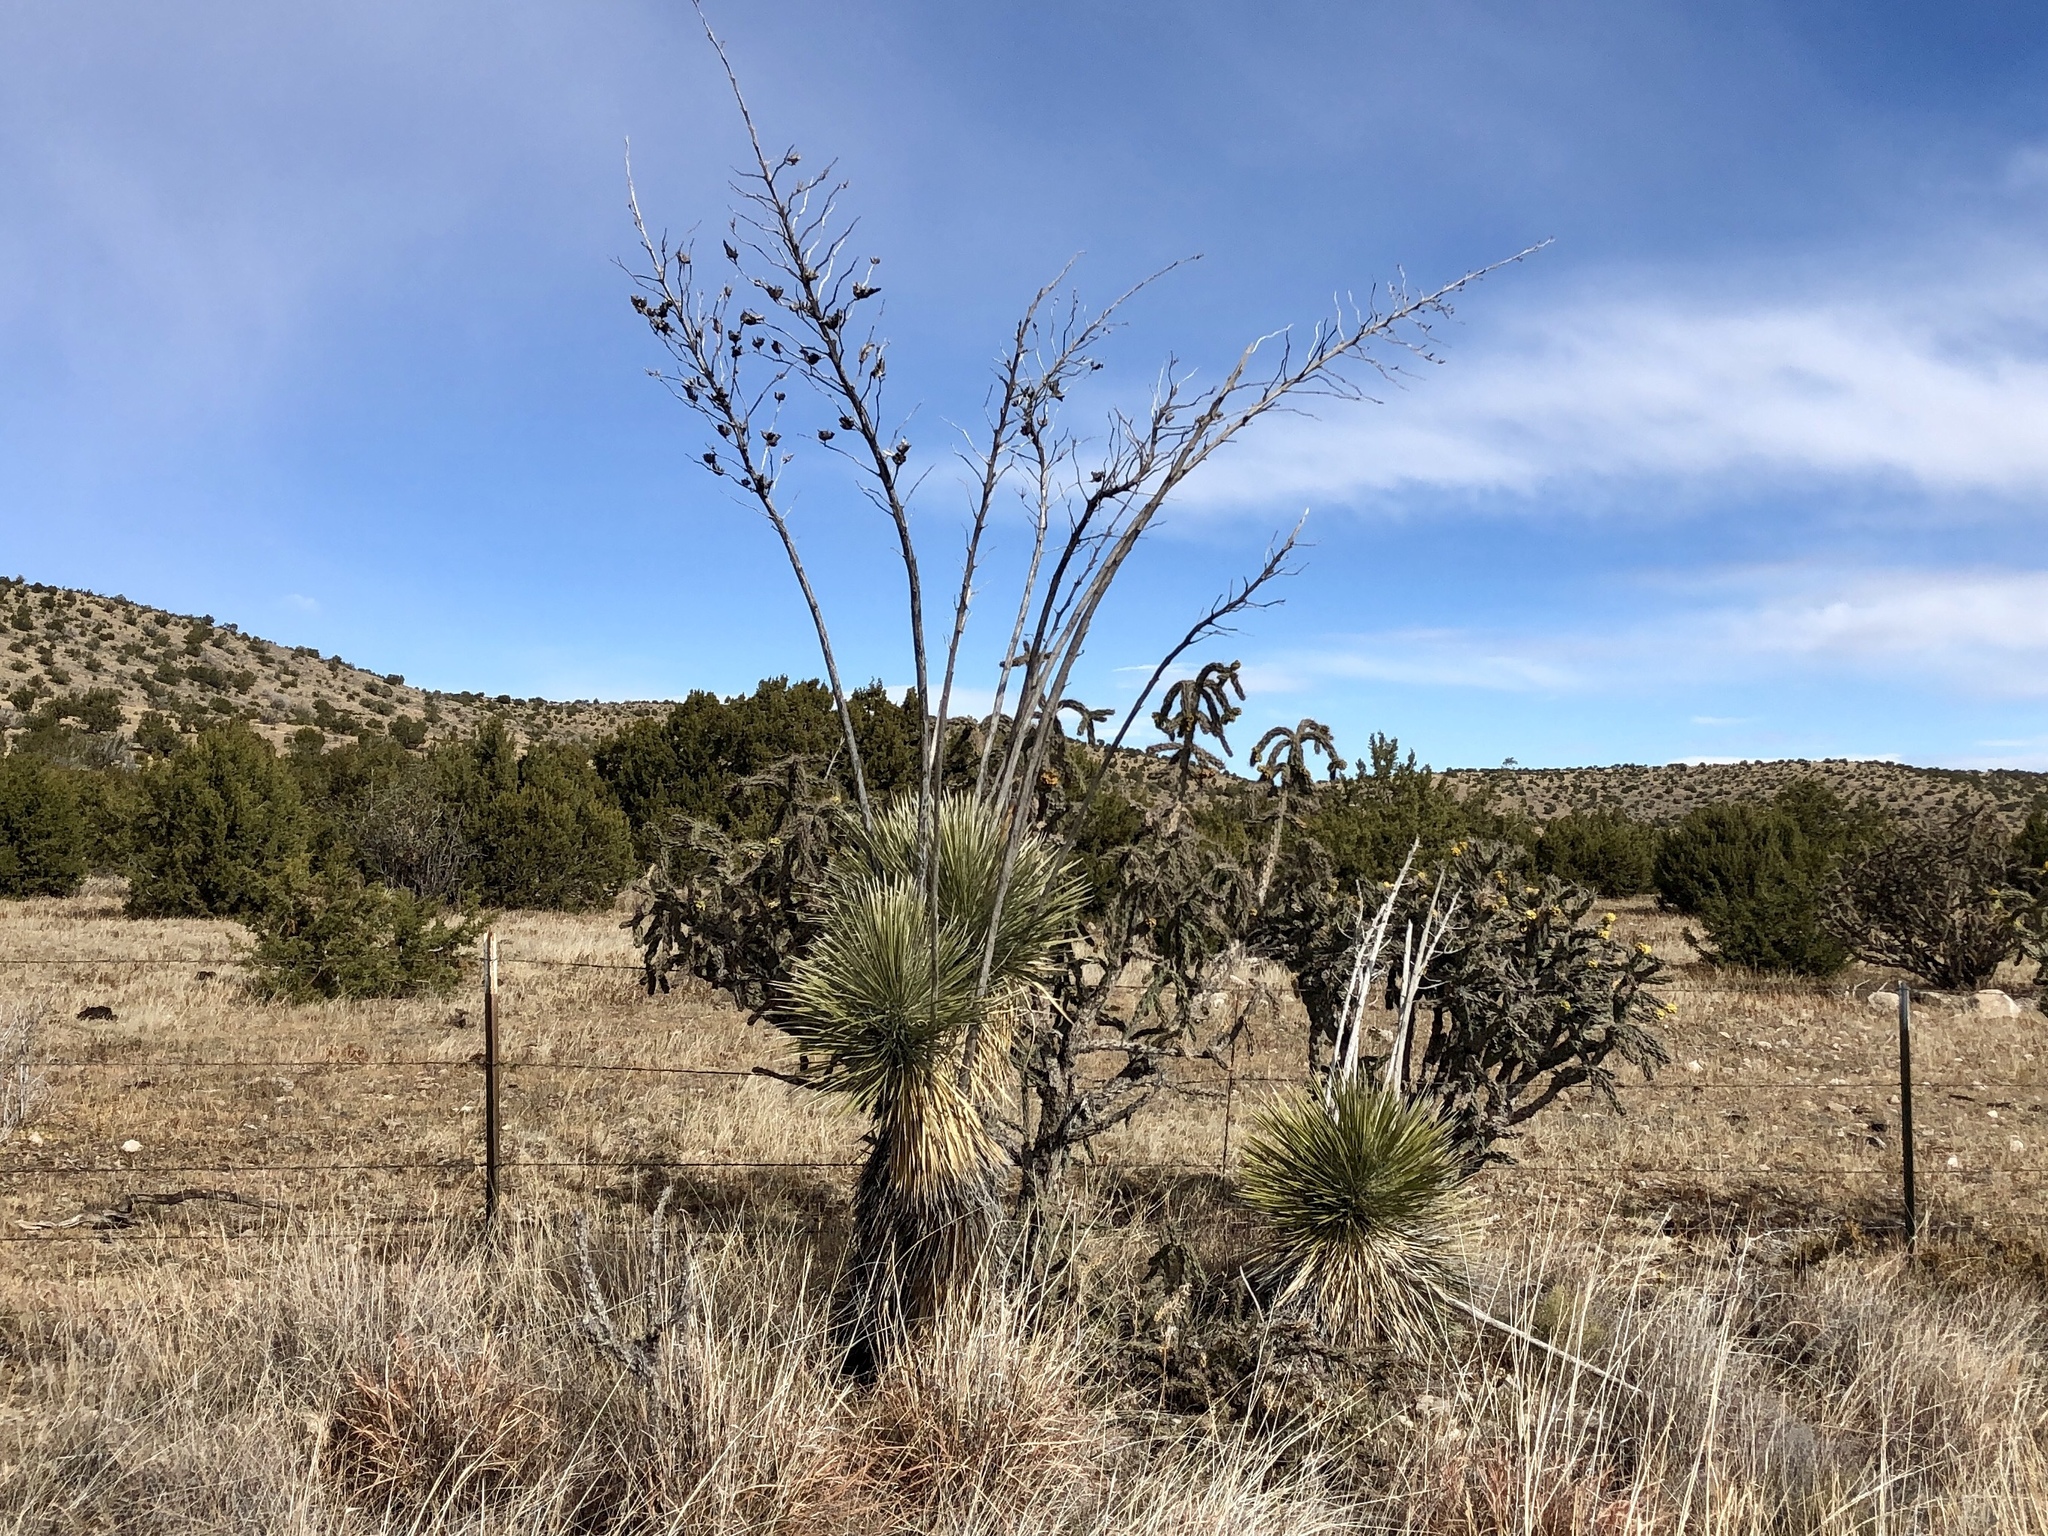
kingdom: Plantae
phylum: Tracheophyta
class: Liliopsida
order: Asparagales
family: Asparagaceae
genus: Yucca
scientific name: Yucca elata
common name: Palmella
